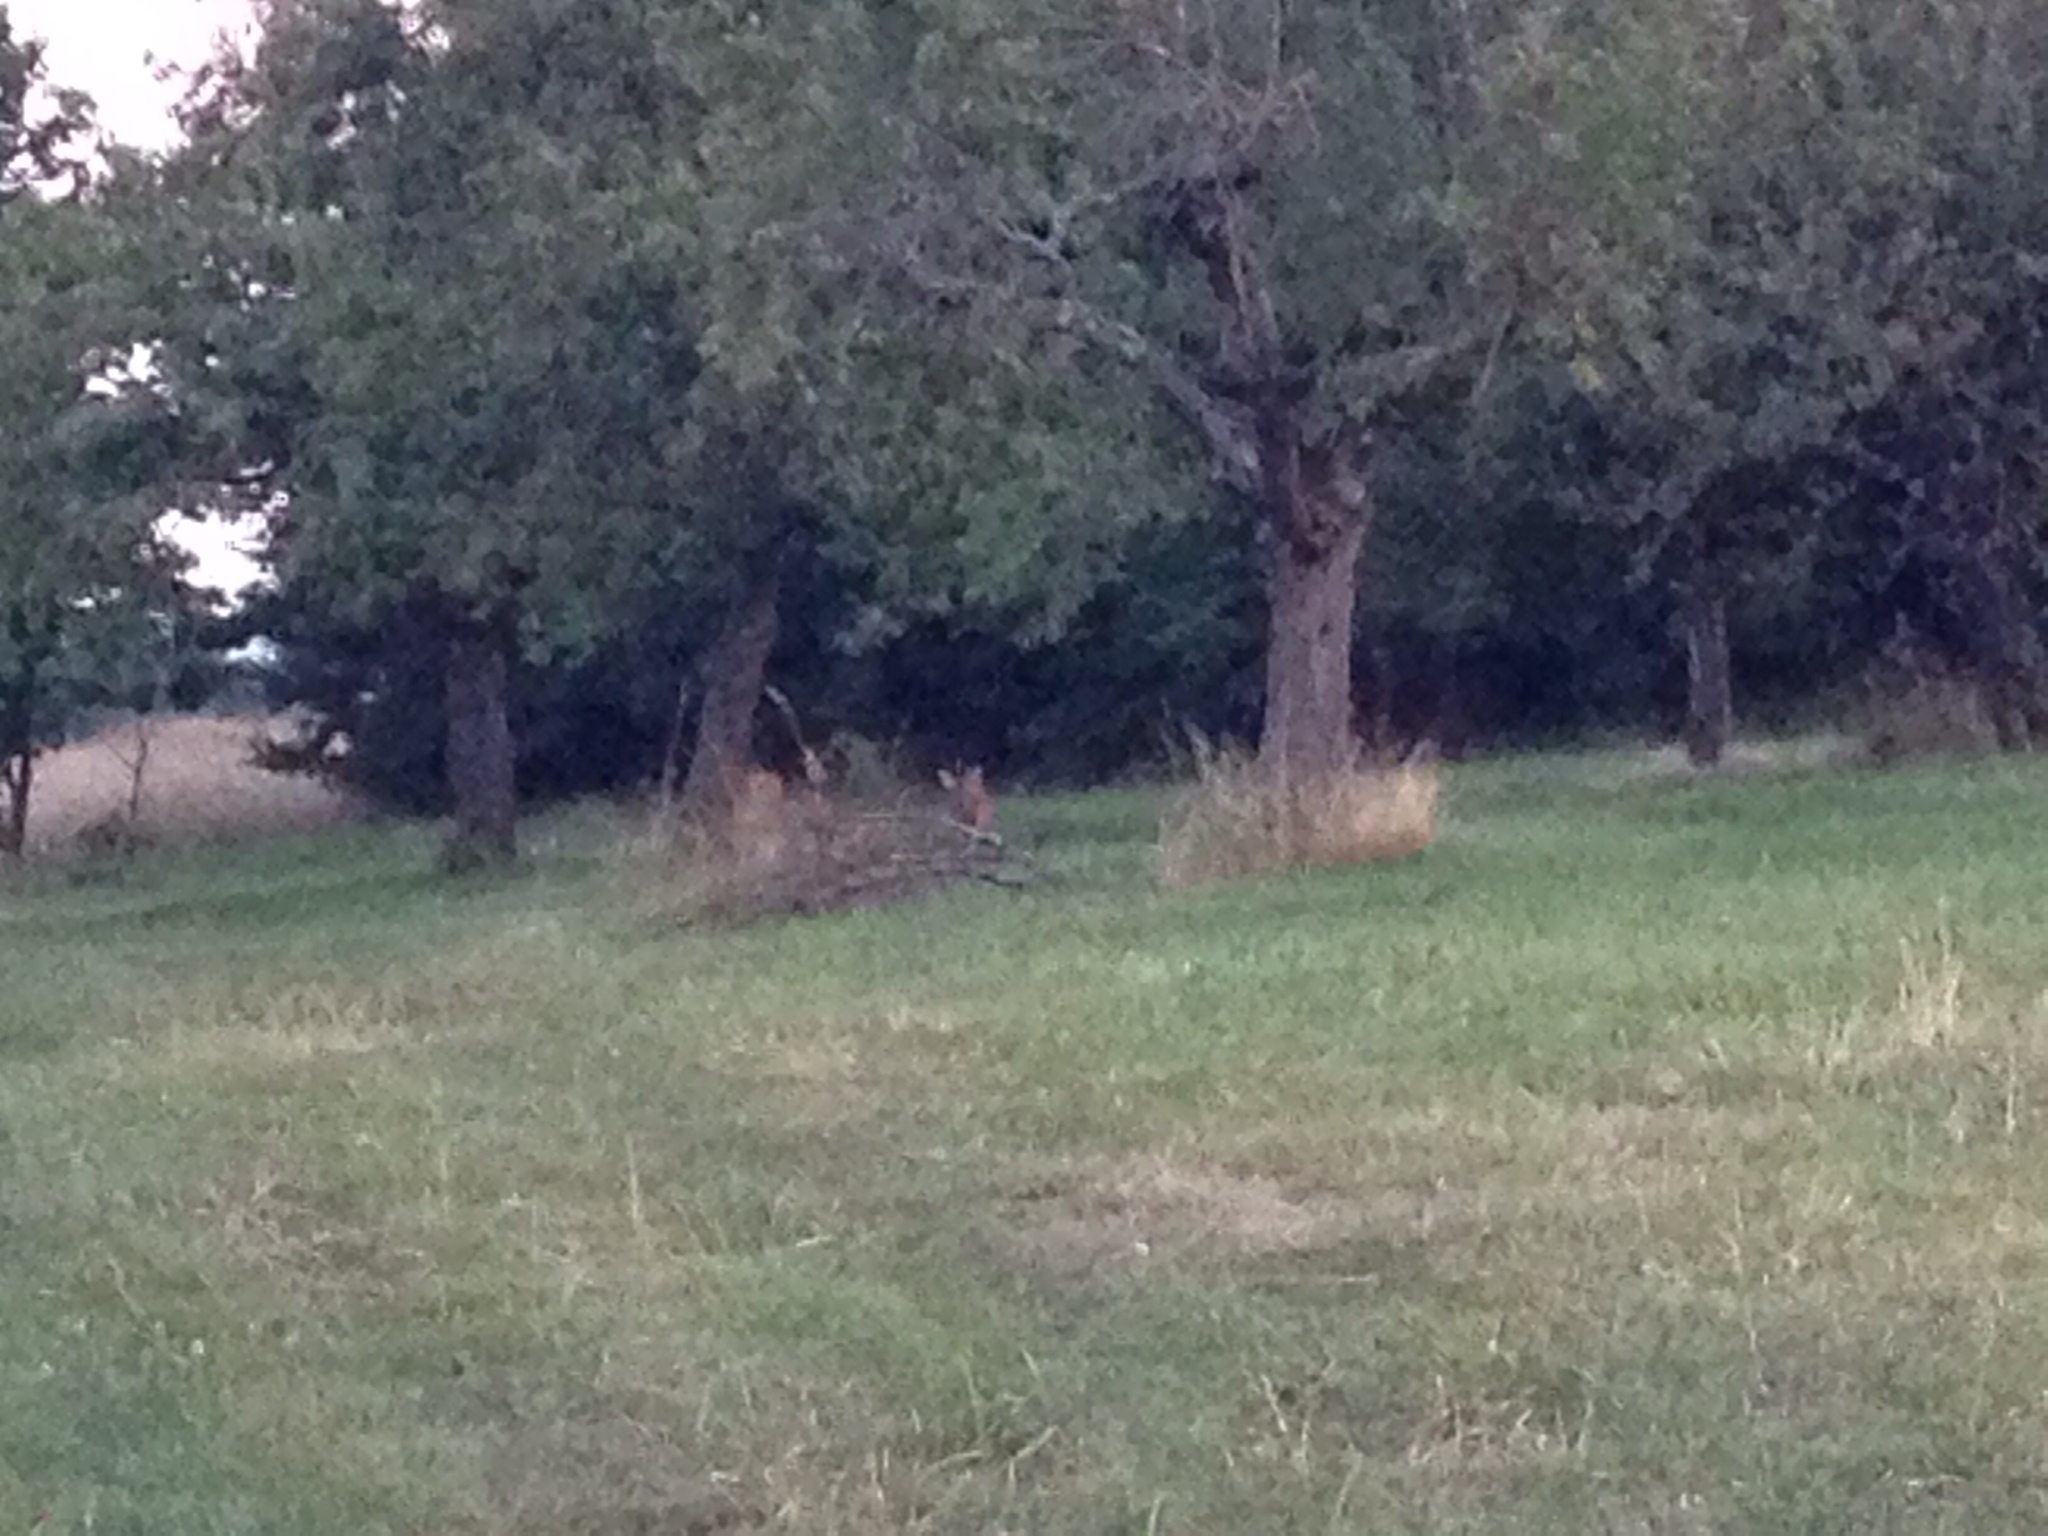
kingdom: Animalia
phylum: Chordata
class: Mammalia
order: Artiodactyla
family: Cervidae
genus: Capreolus
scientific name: Capreolus capreolus
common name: Western roe deer
